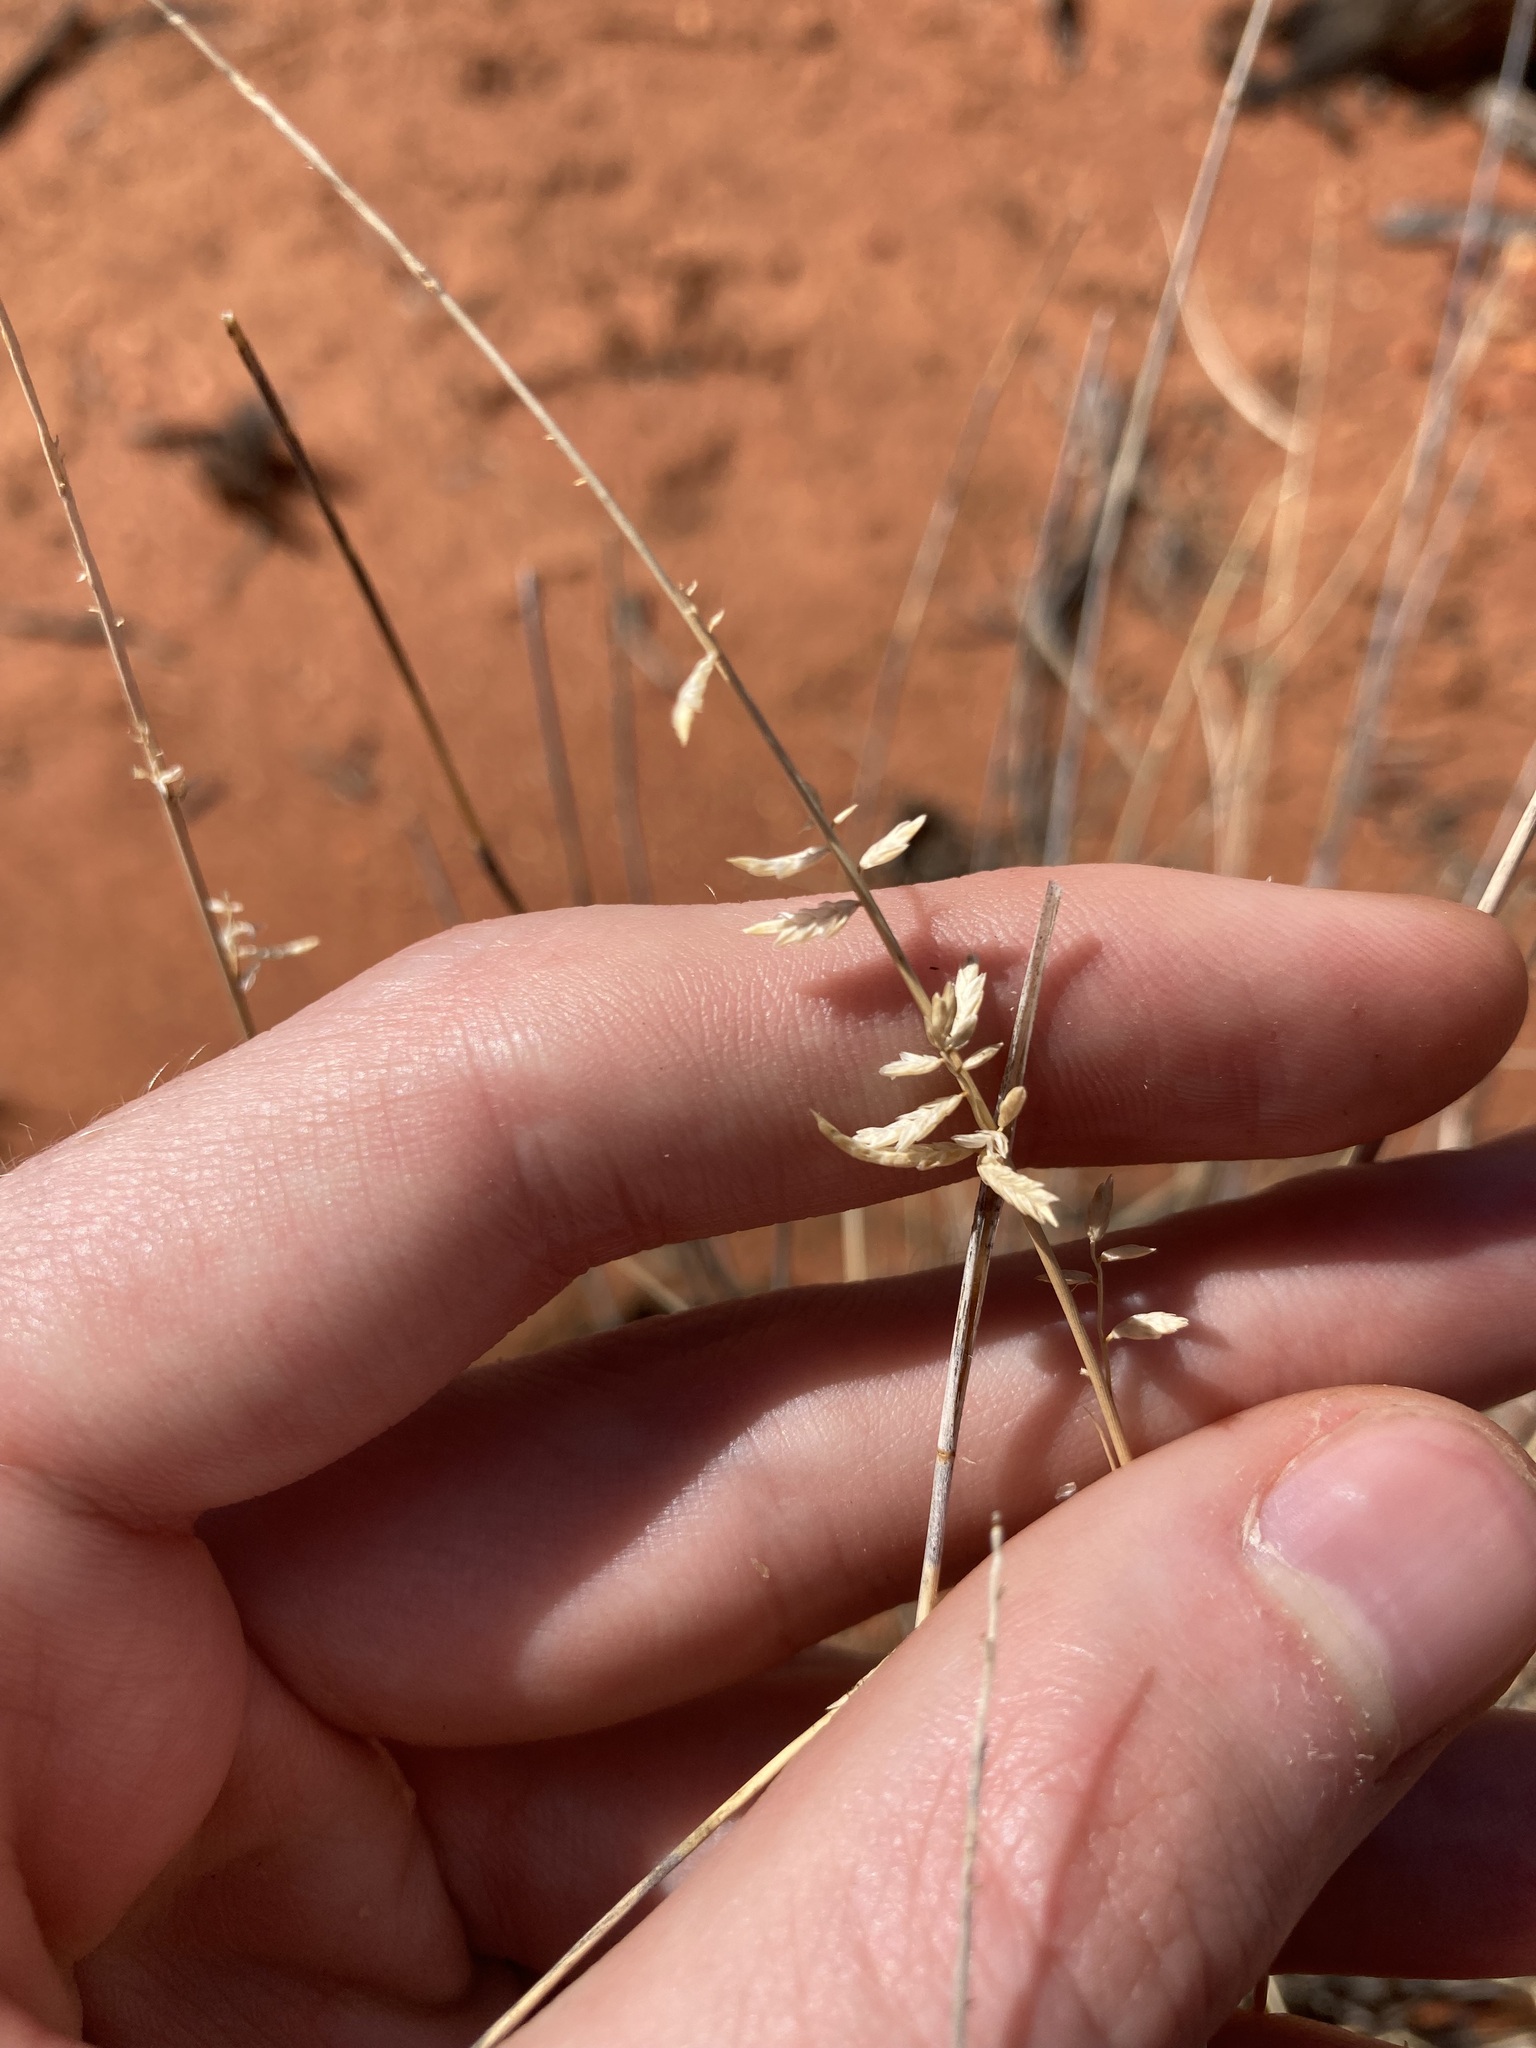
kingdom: Plantae
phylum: Tracheophyta
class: Liliopsida
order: Poales
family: Poaceae
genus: Eragrostis
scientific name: Eragrostis eriopoda
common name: Plain neverfail
